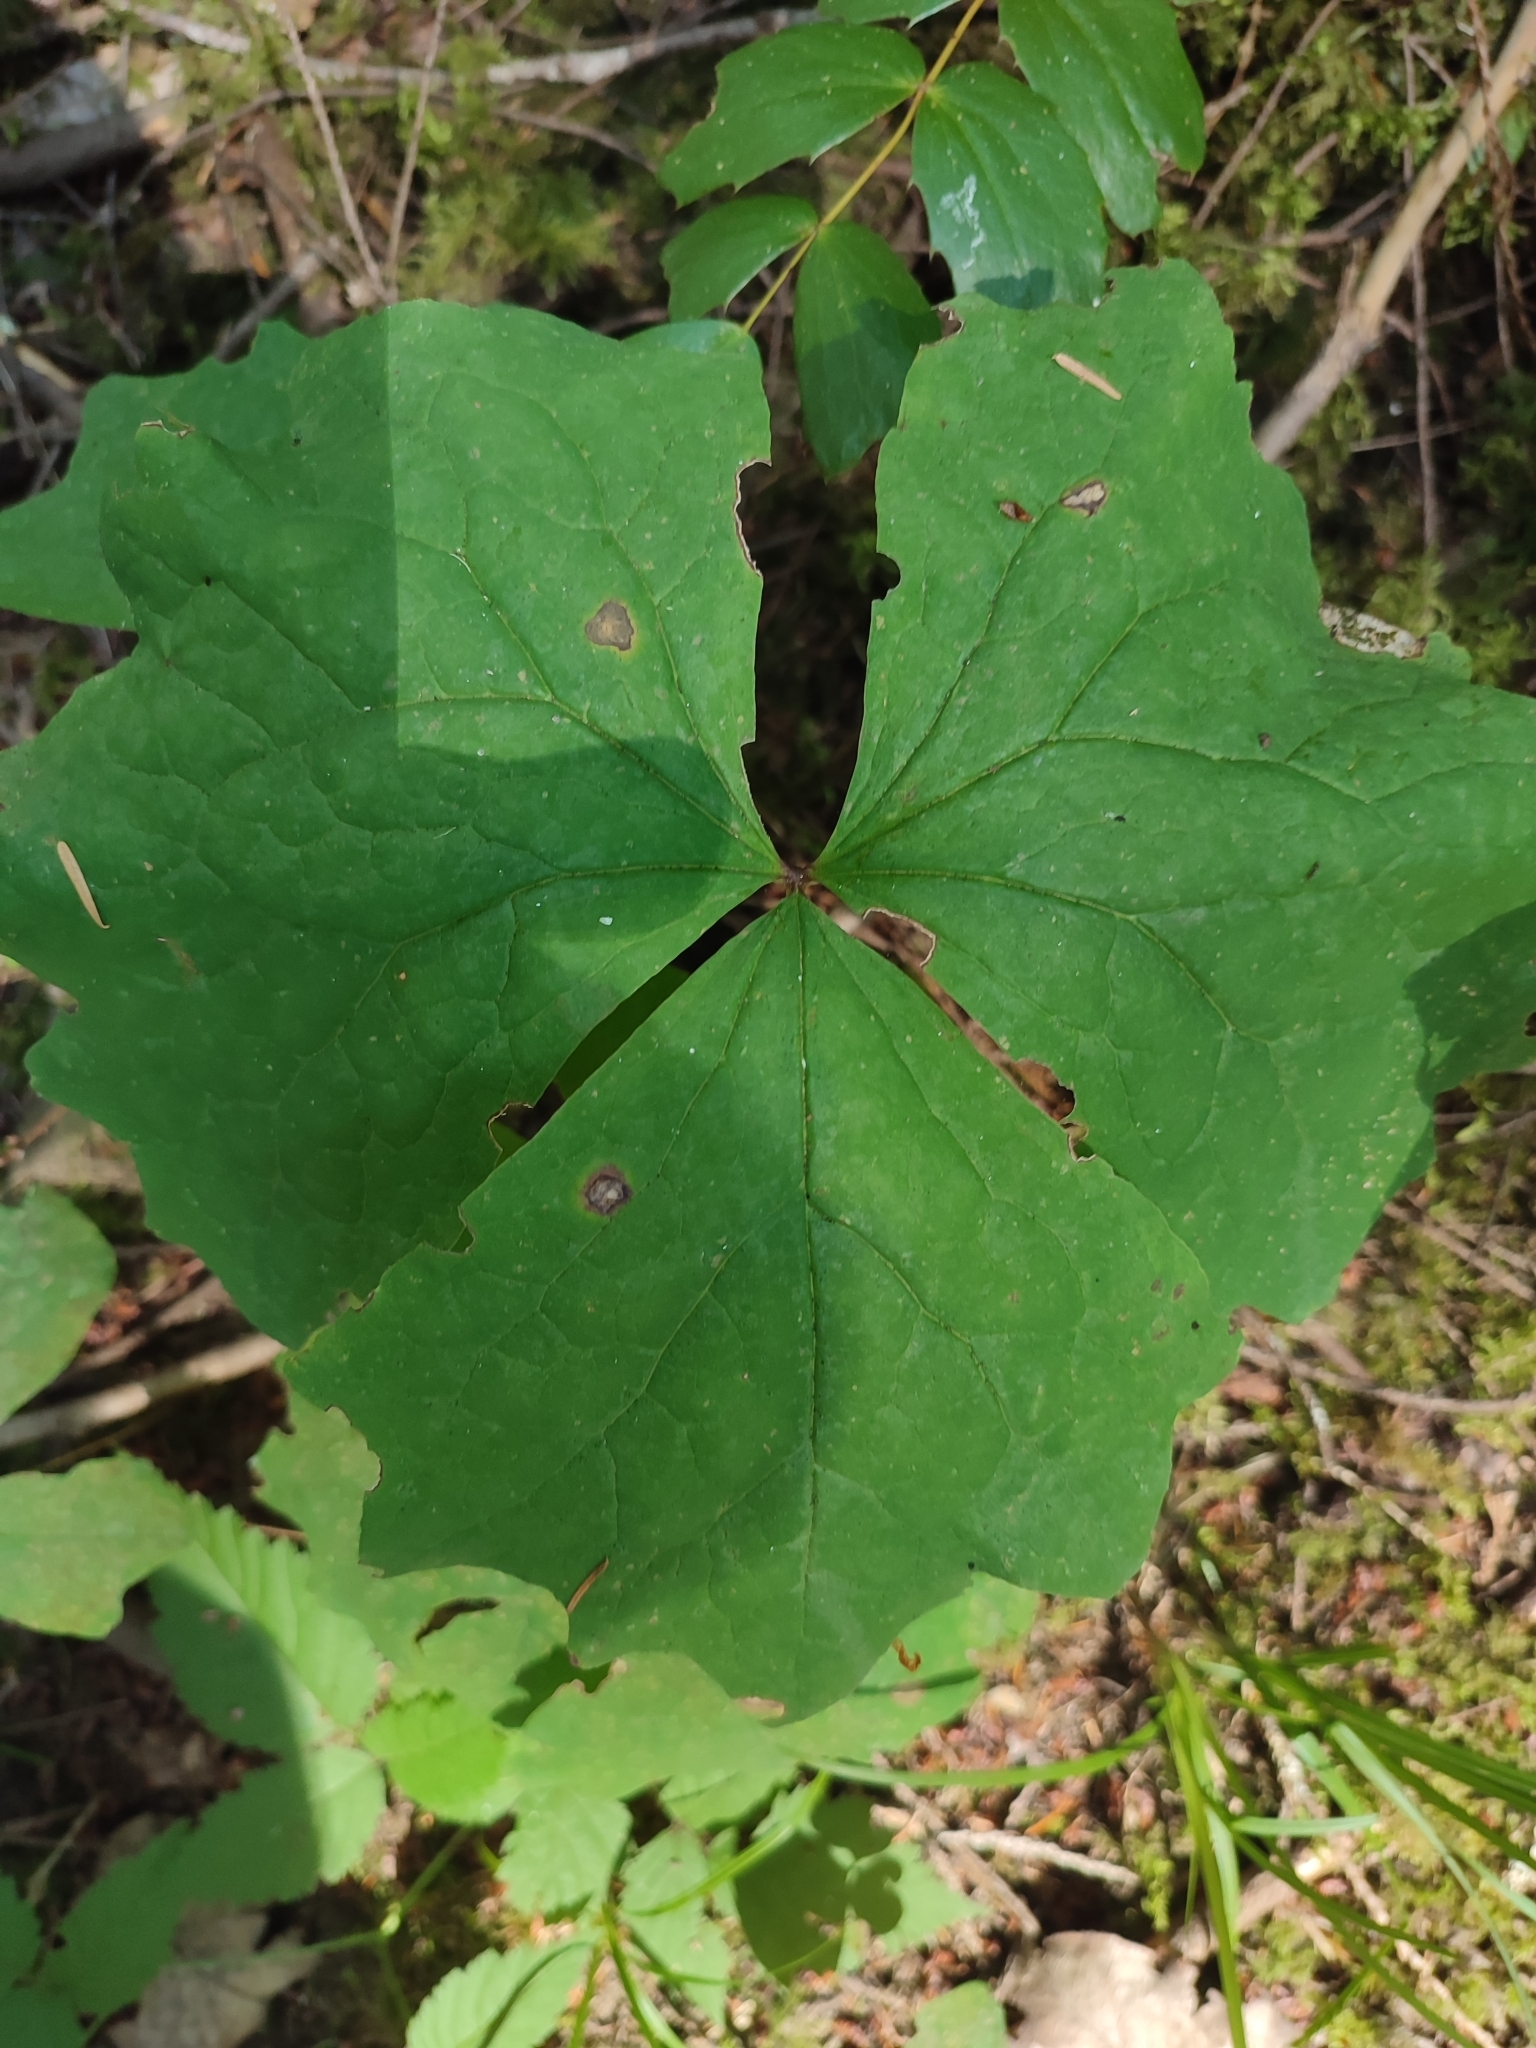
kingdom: Plantae
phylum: Tracheophyta
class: Magnoliopsida
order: Ranunculales
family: Berberidaceae
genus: Achlys
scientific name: Achlys triphylla
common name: Vanilla-leaf
